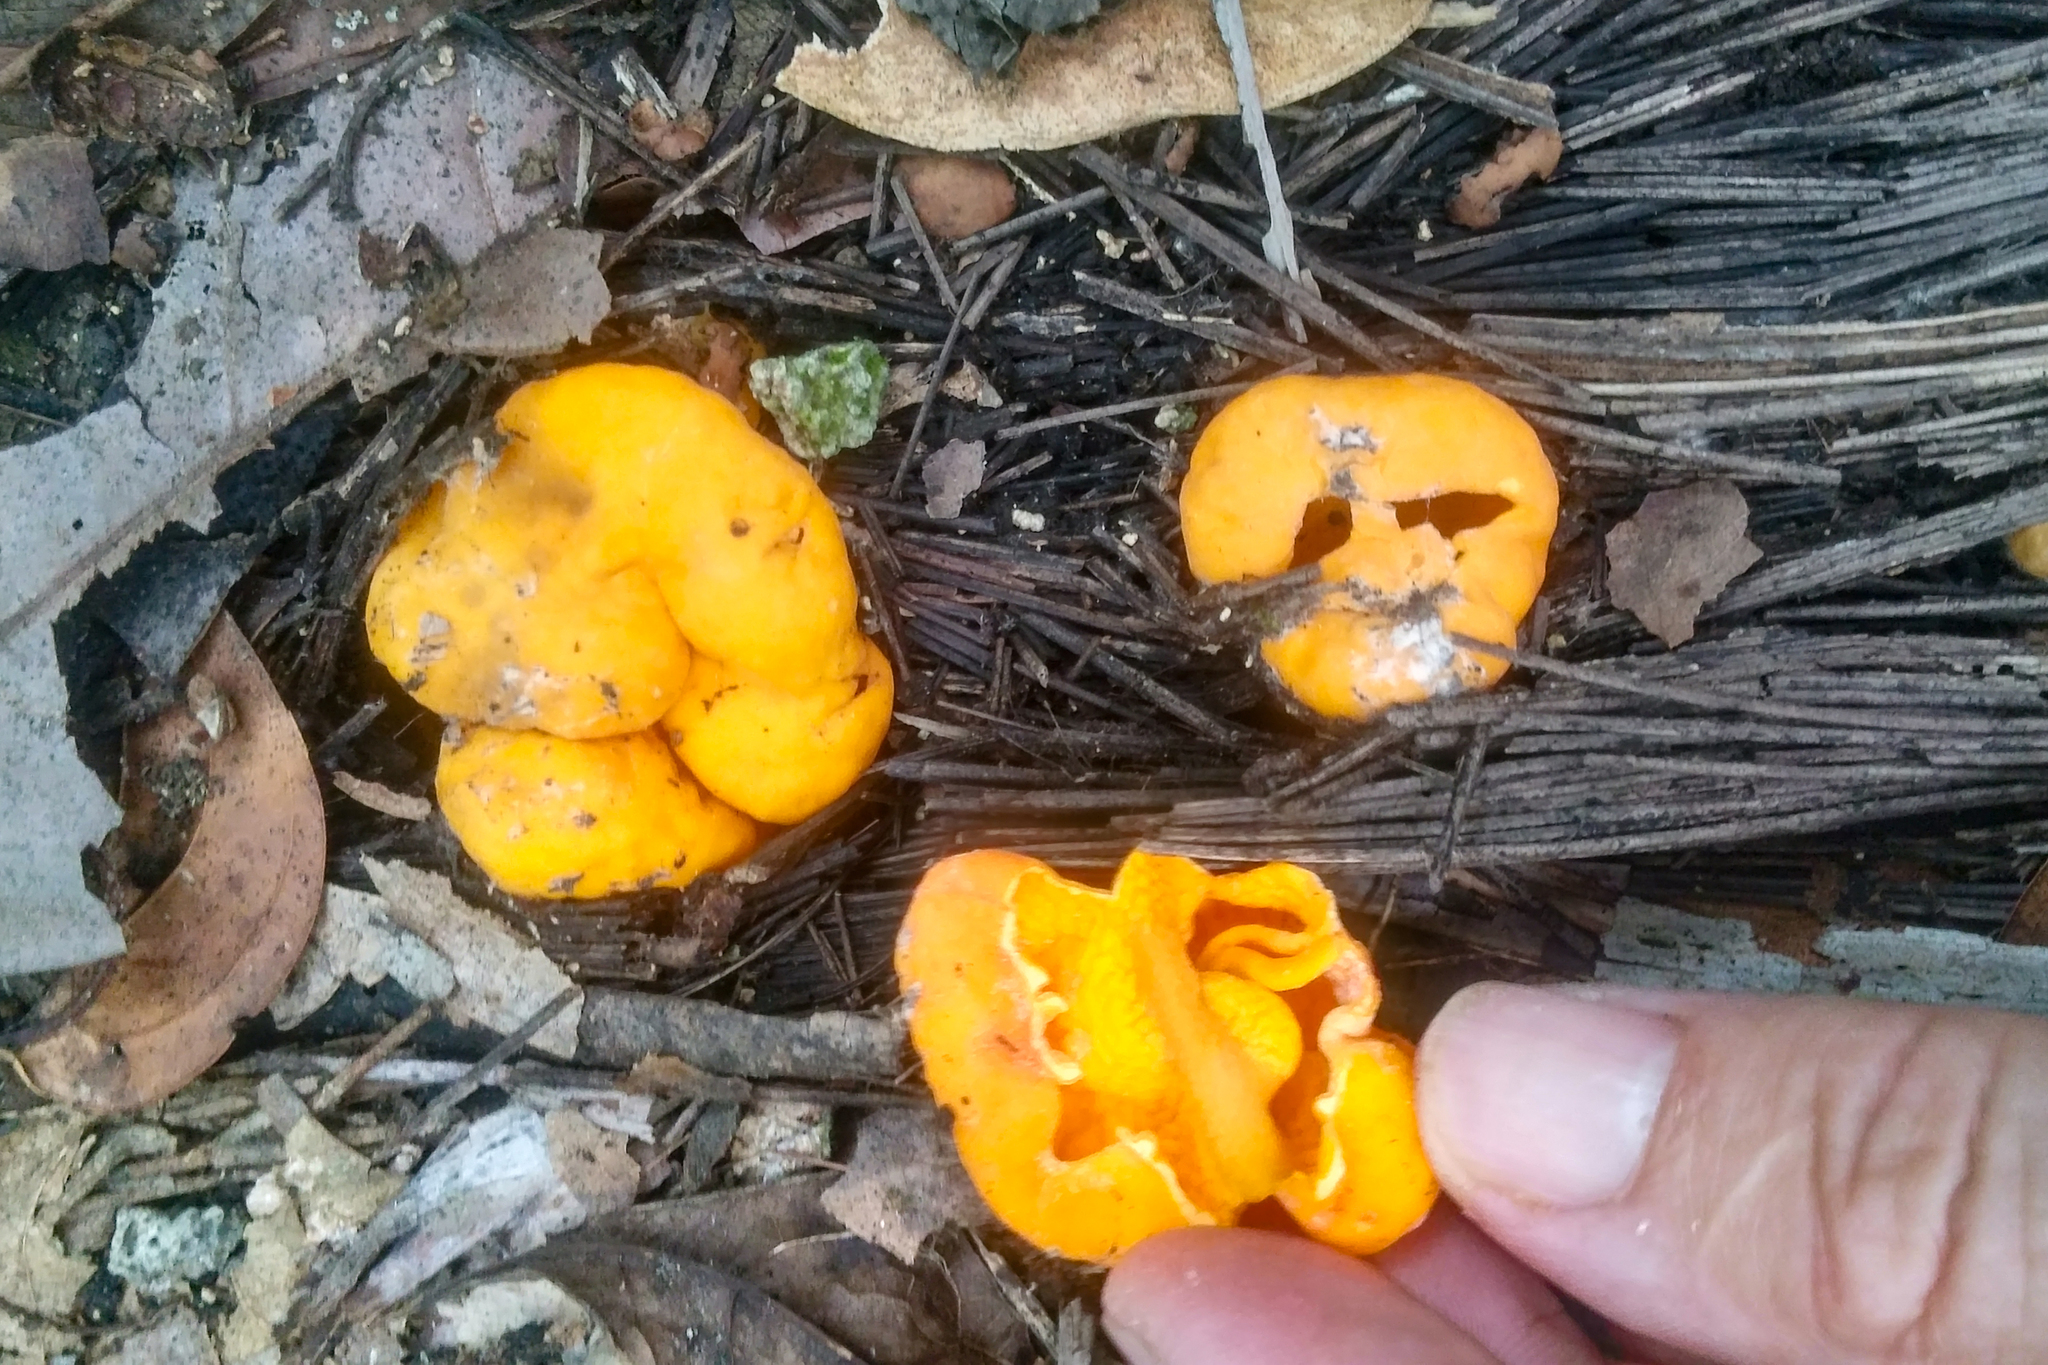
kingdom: Fungi
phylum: Ascomycota
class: Pezizomycetes
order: Pezizales
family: Glaziellaceae
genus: Glaziella
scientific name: Glaziella aurantiaca
